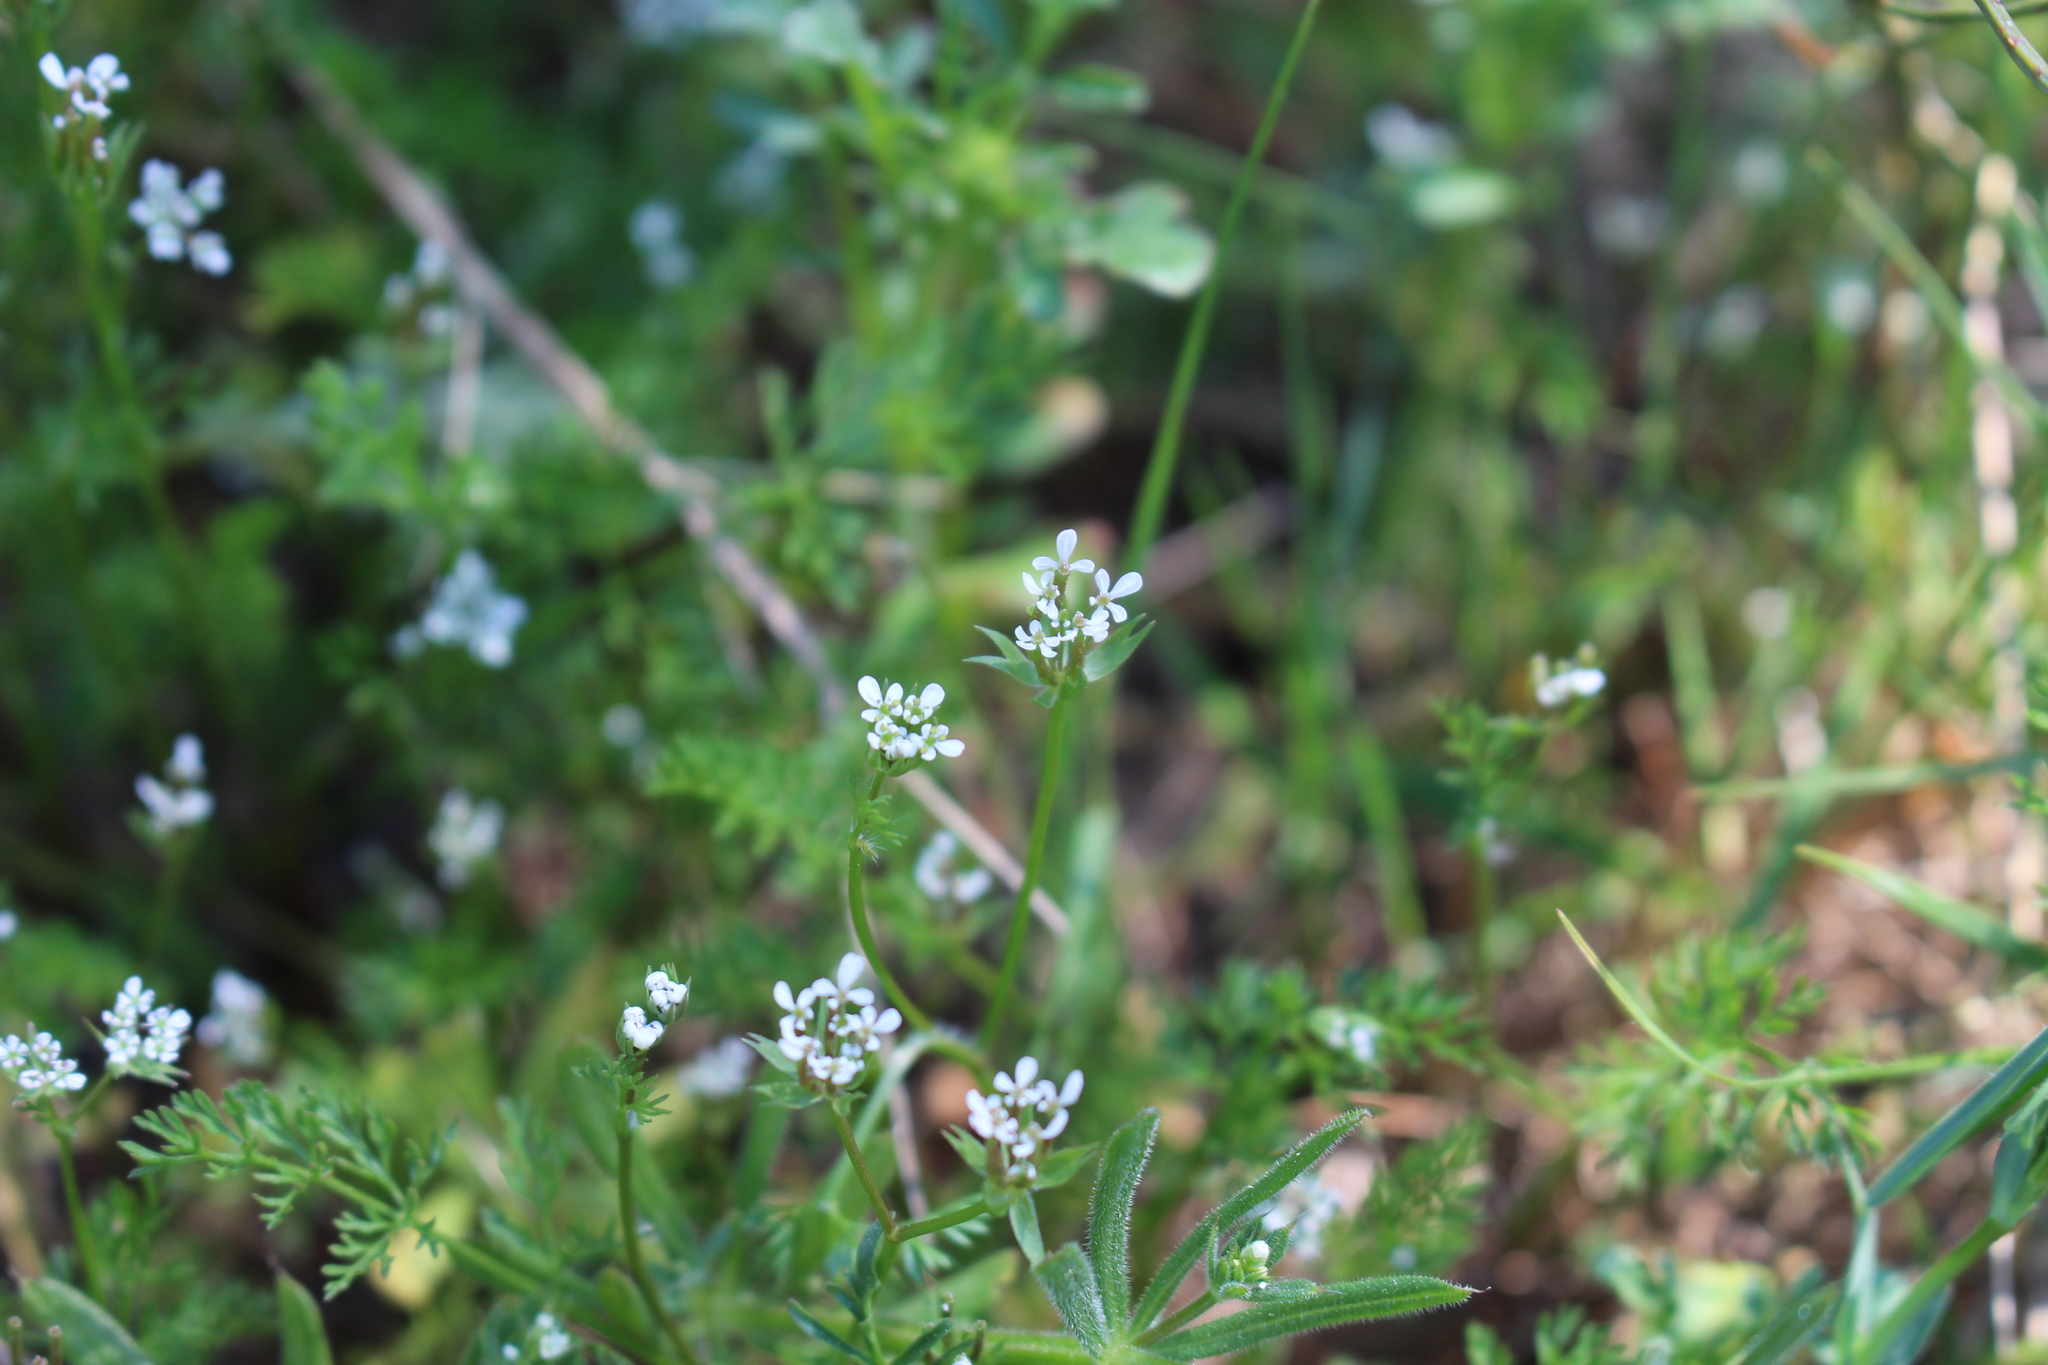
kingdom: Plantae
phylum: Tracheophyta
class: Magnoliopsida
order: Apiales
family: Apiaceae
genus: Scandix
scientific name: Scandix pecten-veneris
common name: Shepherd's-needle
